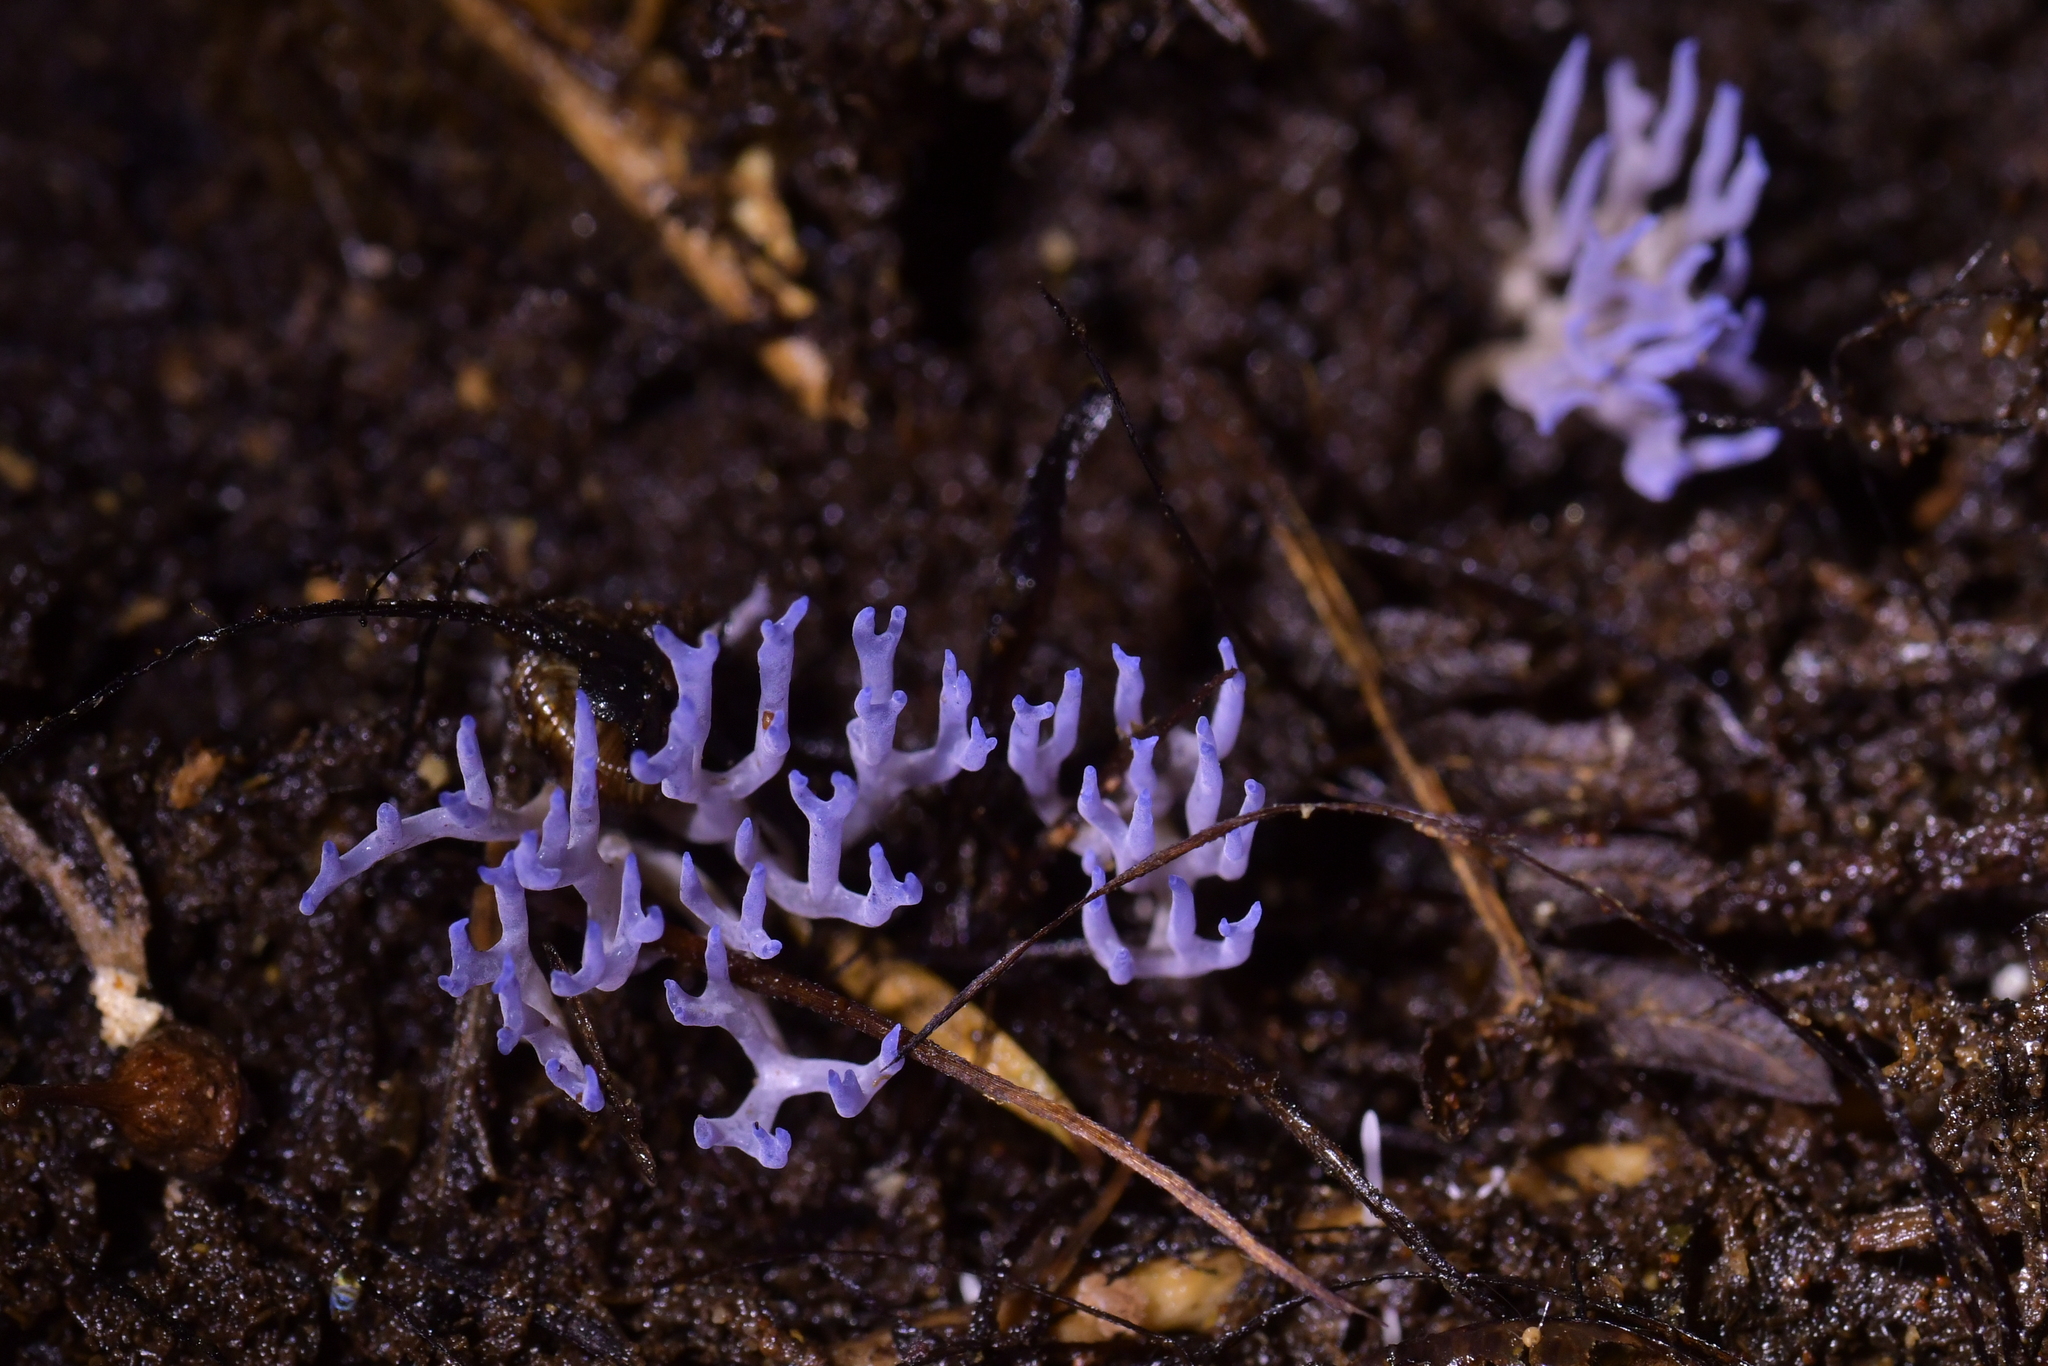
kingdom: Fungi
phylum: Basidiomycota
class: Agaricomycetes
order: Agaricales
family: Clavariaceae
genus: Ramariopsis
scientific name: Ramariopsis pulchella
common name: Lilac coral
